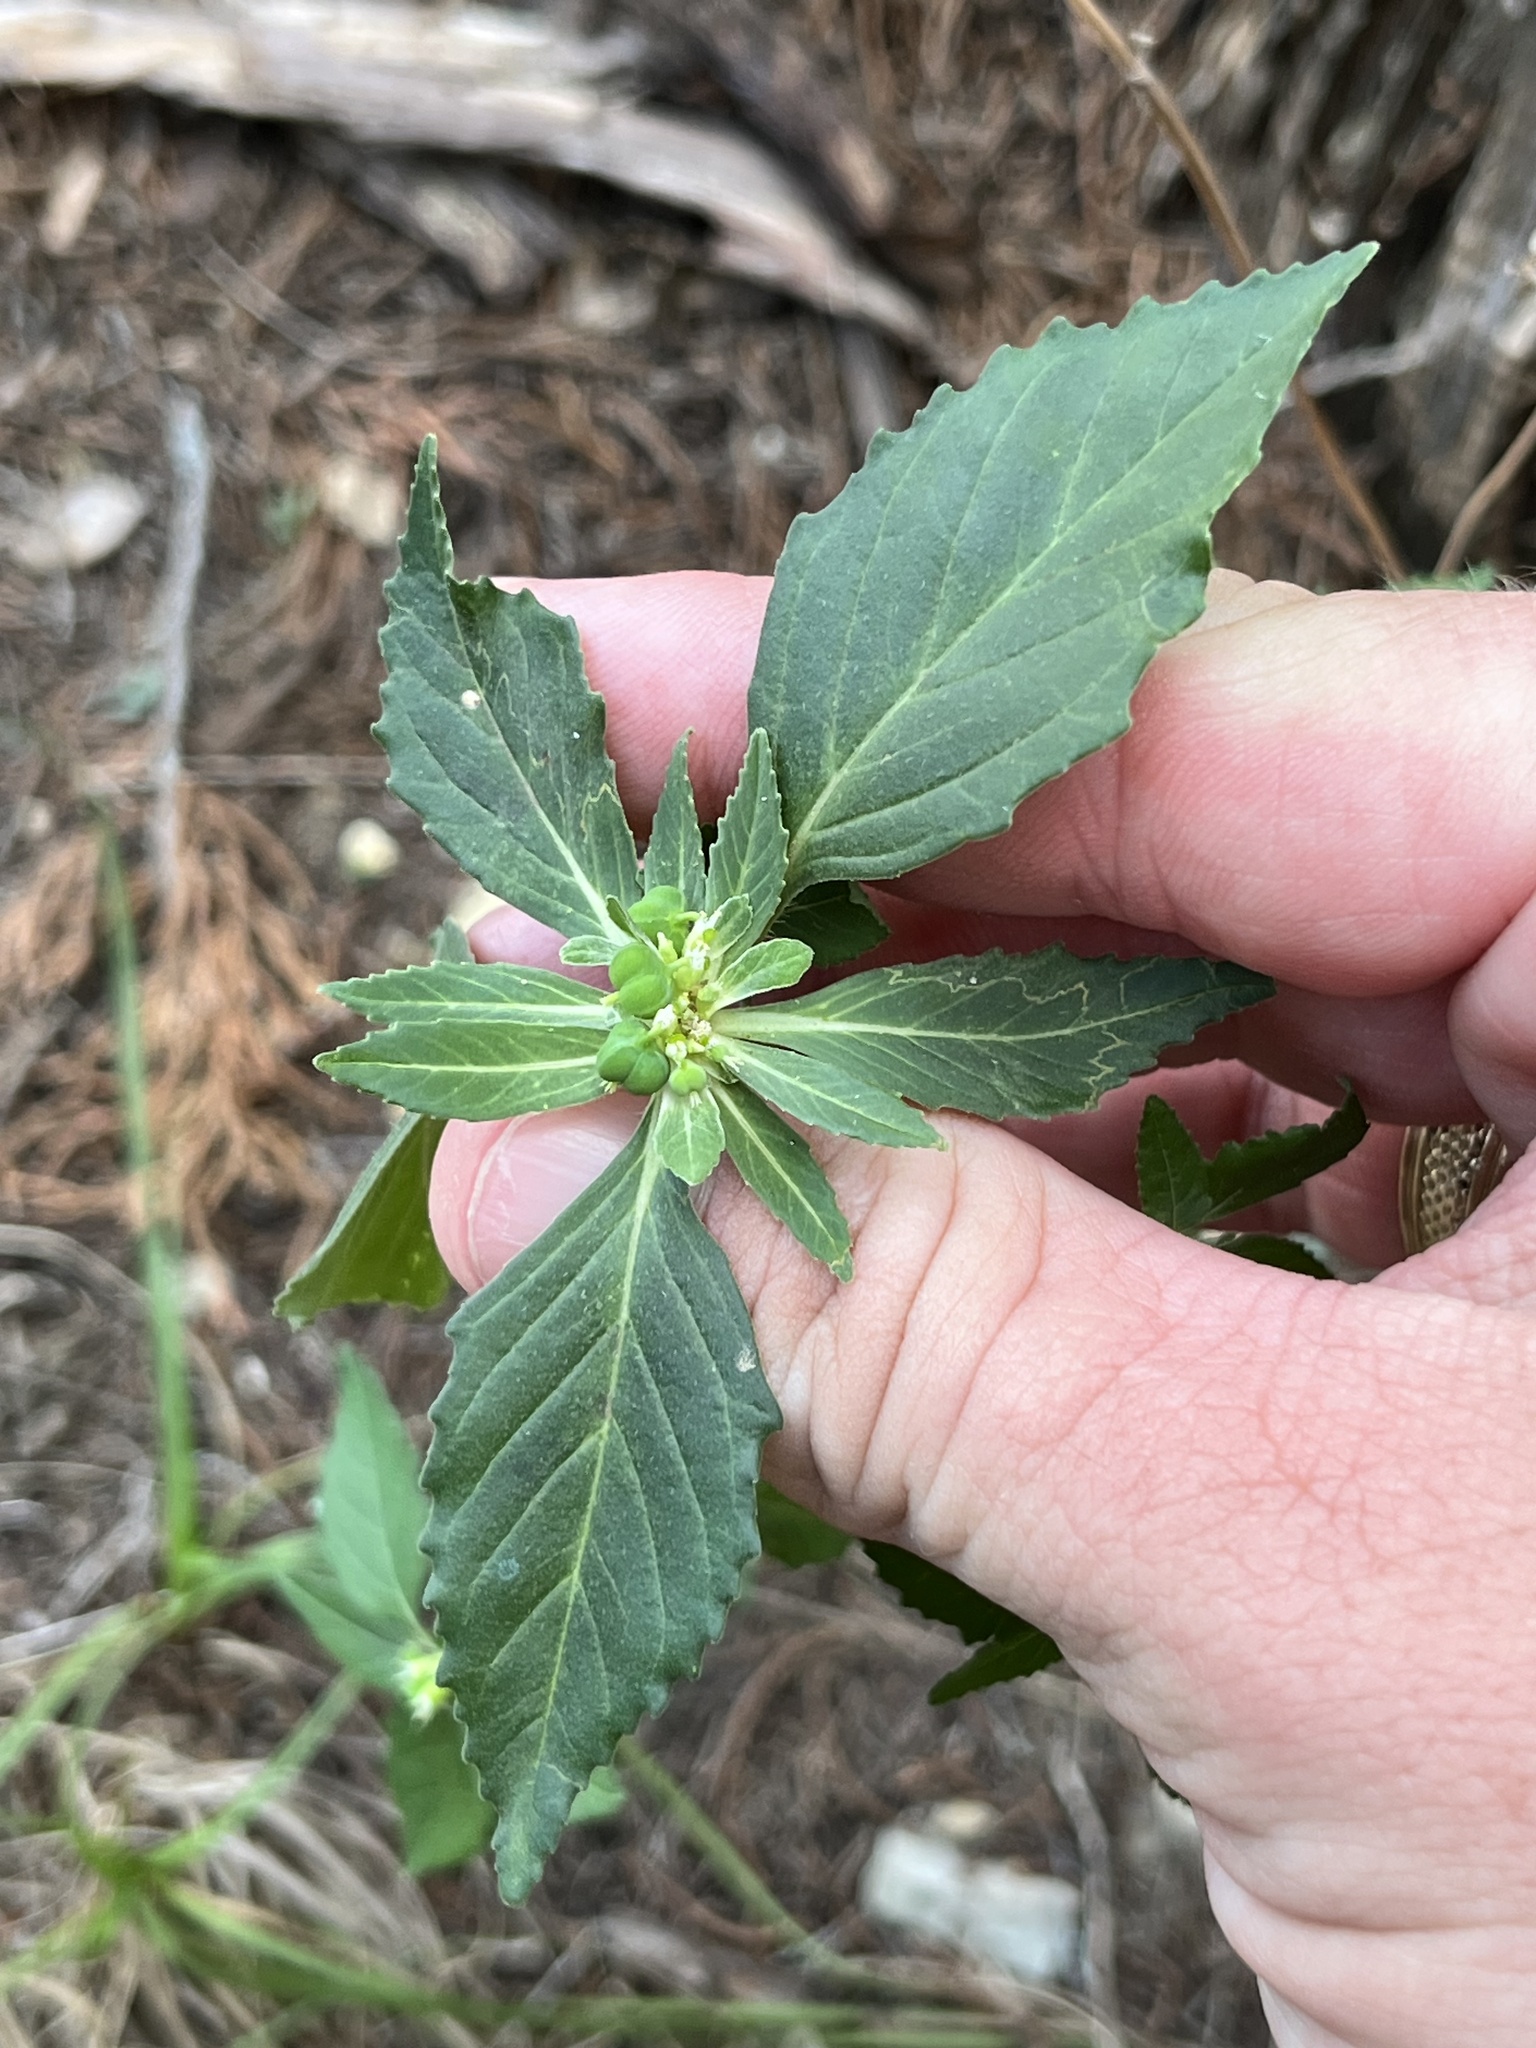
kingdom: Plantae
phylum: Tracheophyta
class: Magnoliopsida
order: Malpighiales
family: Euphorbiaceae
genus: Euphorbia
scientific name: Euphorbia dentata
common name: Dentate spurge
